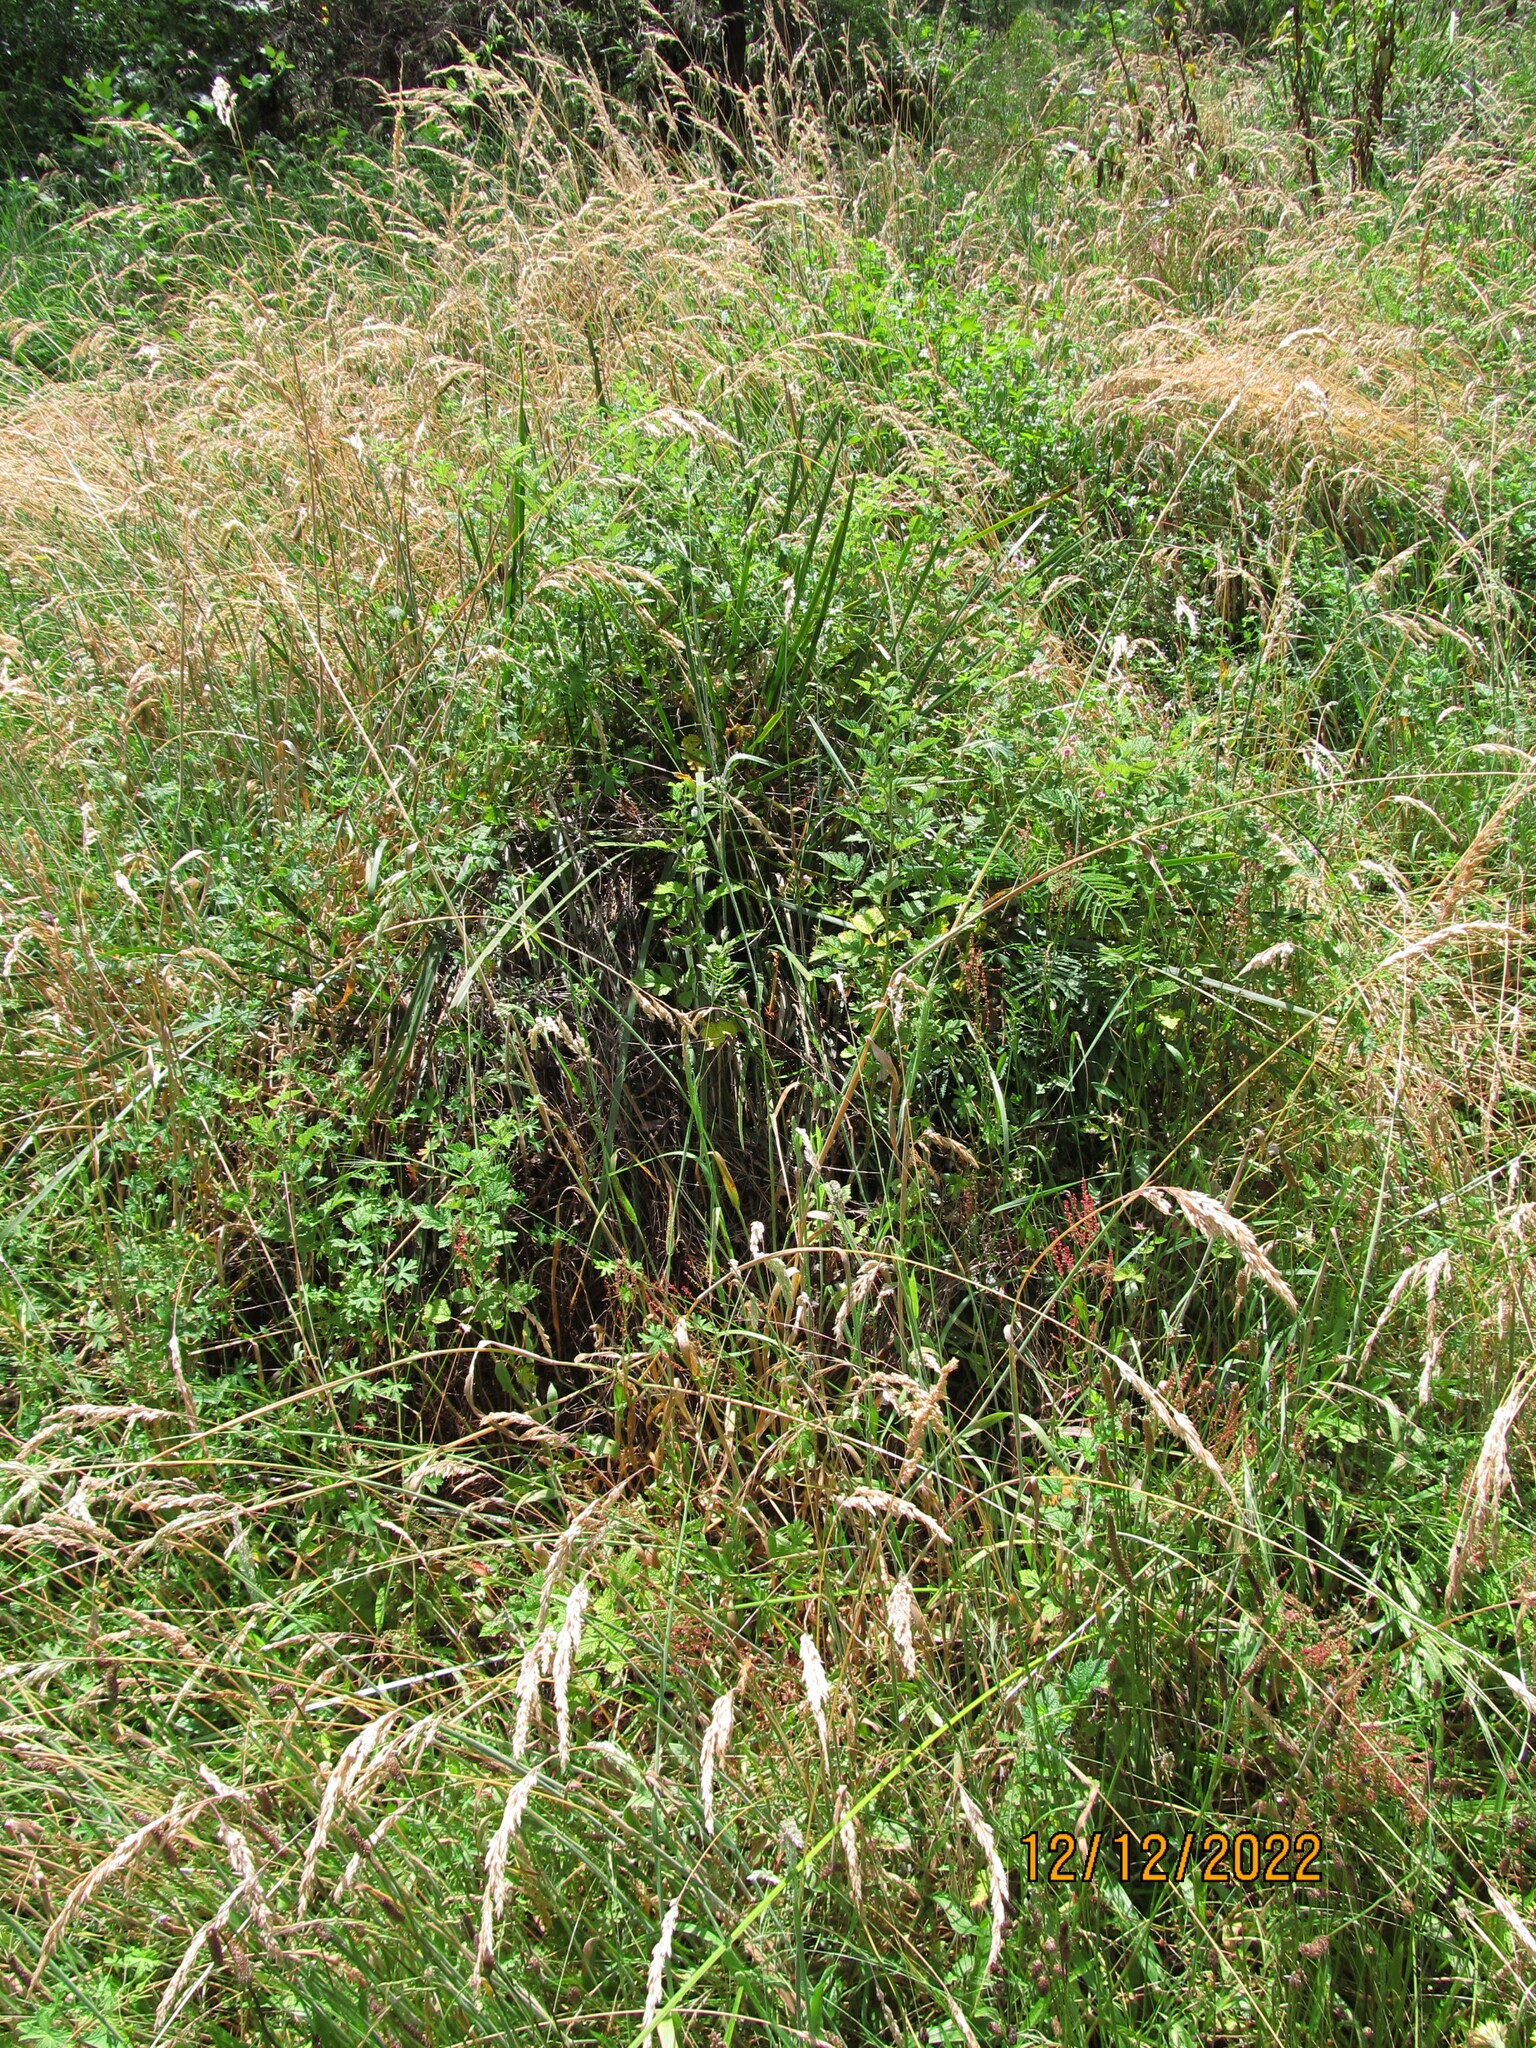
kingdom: Plantae
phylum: Tracheophyta
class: Magnoliopsida
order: Rosales
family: Rosaceae
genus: Rubus
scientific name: Rubus parvifolius
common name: Threeleaf blackberry
